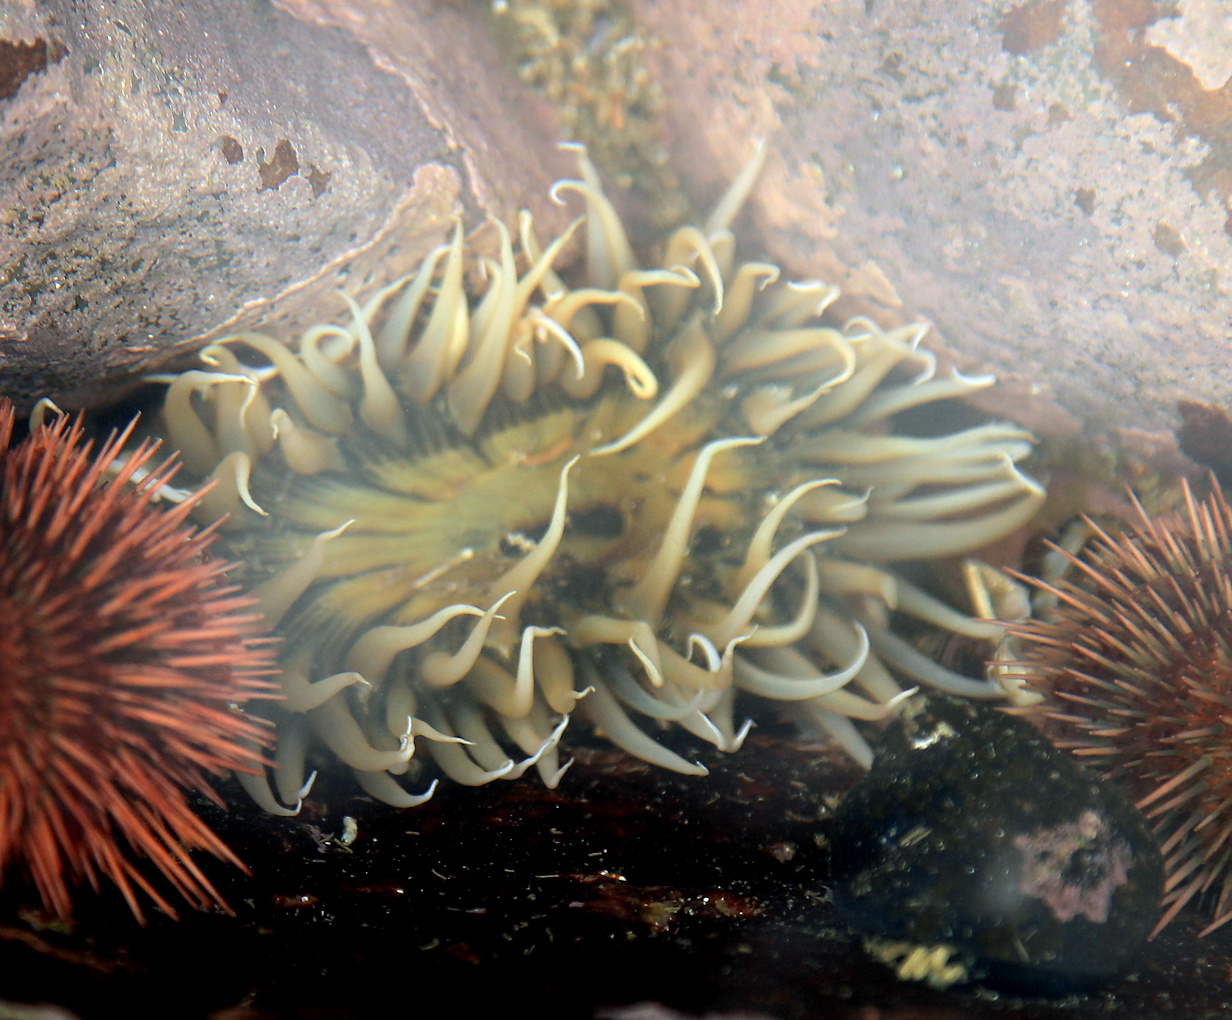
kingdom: Animalia
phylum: Cnidaria
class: Anthozoa
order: Actiniaria
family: Actiniidae
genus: Anthopleura
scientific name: Anthopleura michaelseni
